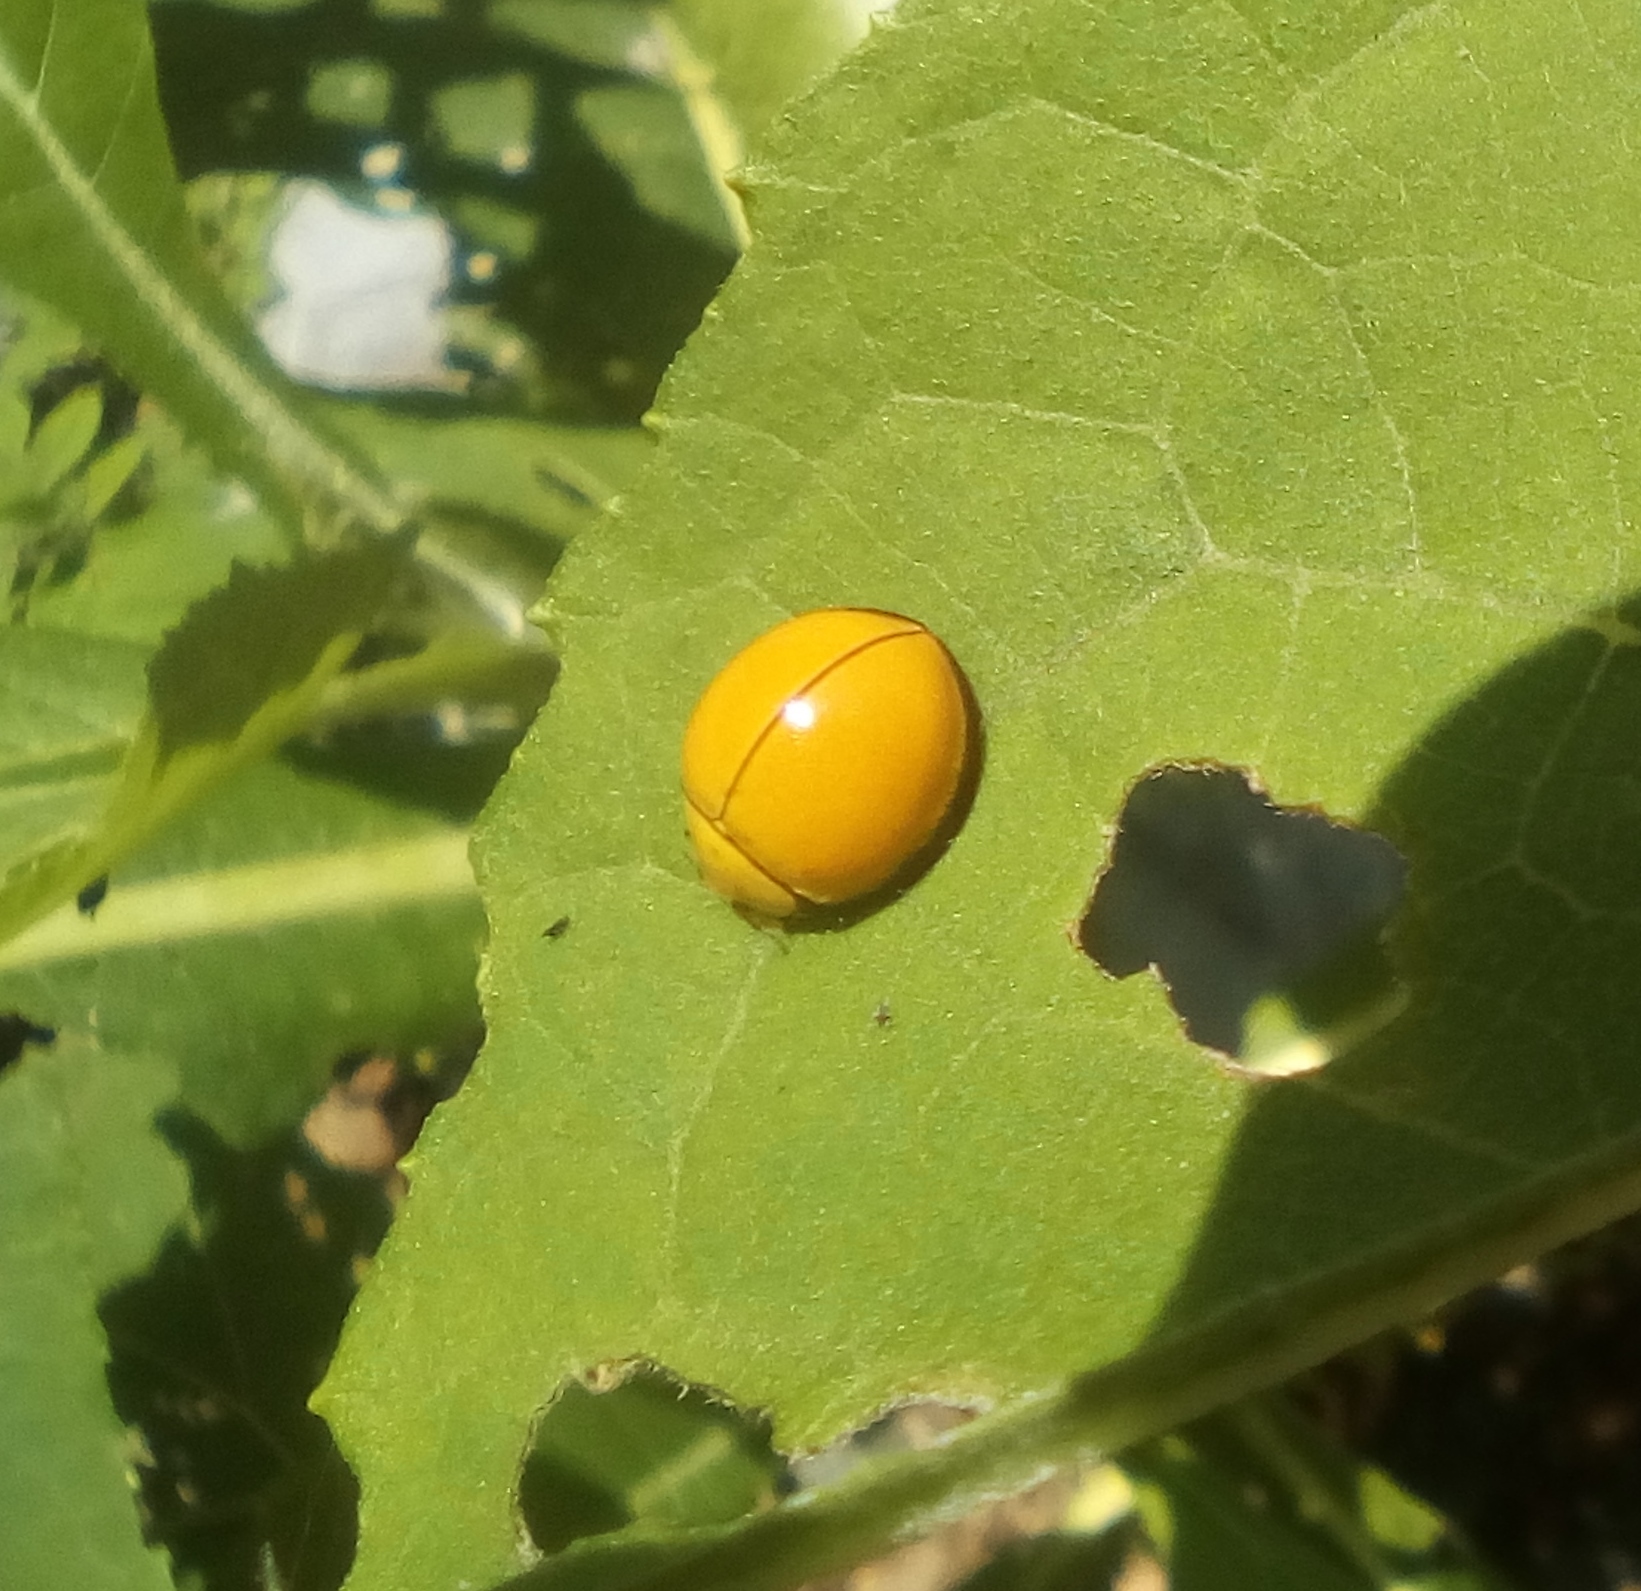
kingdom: Animalia
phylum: Arthropoda
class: Insecta
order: Coleoptera
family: Coccinellidae
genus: Neda
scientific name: Neda
